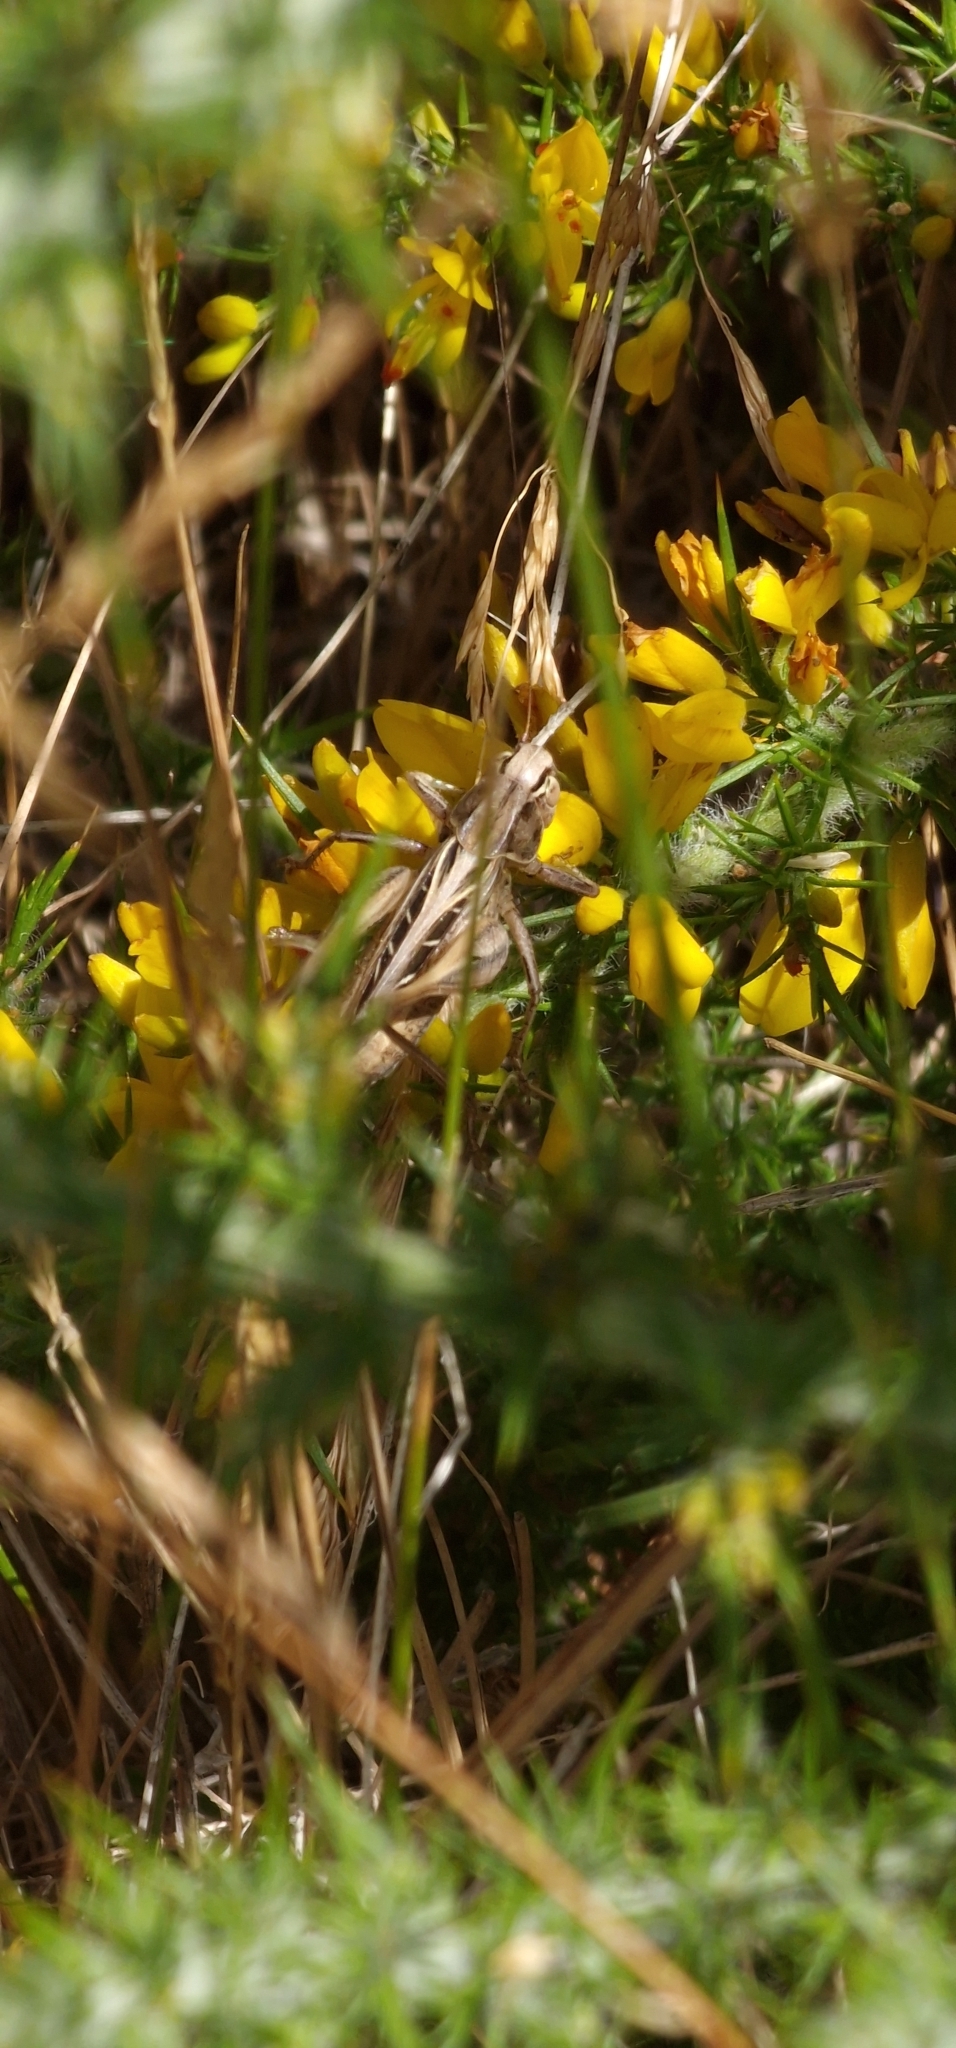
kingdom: Animalia
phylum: Arthropoda
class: Insecta
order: Orthoptera
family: Tettigoniidae
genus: Tessellana
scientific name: Tessellana tessellata
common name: Grasshopper
